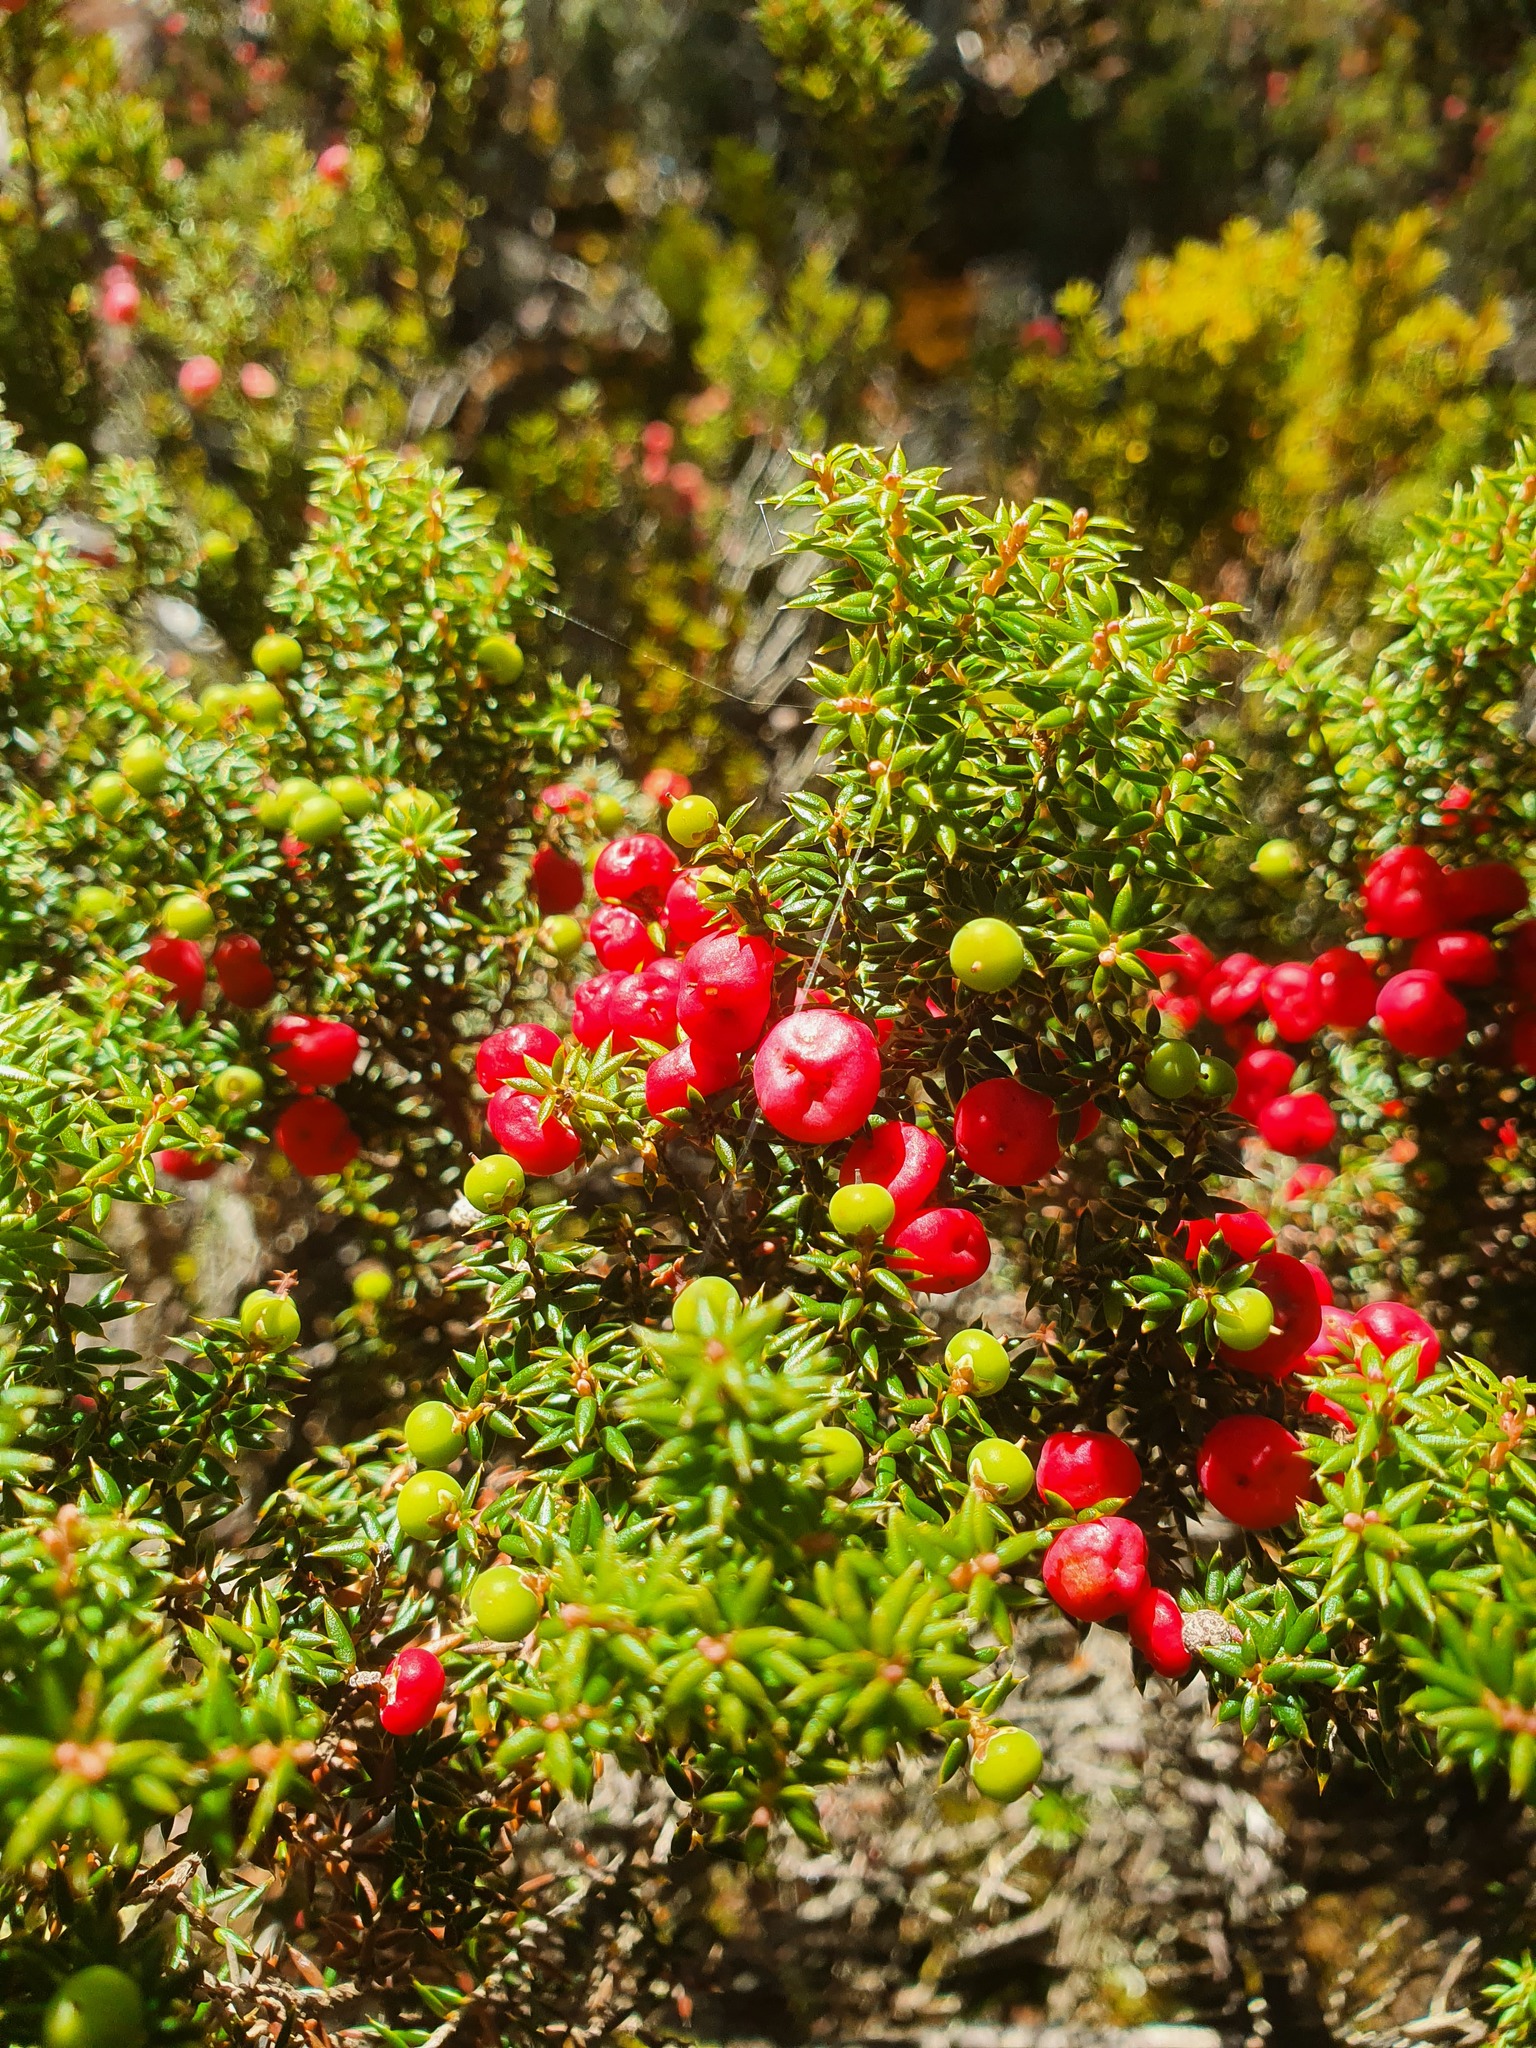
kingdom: Plantae
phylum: Tracheophyta
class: Magnoliopsida
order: Ericales
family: Ericaceae
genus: Leptecophylla
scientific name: Leptecophylla parvifolia
